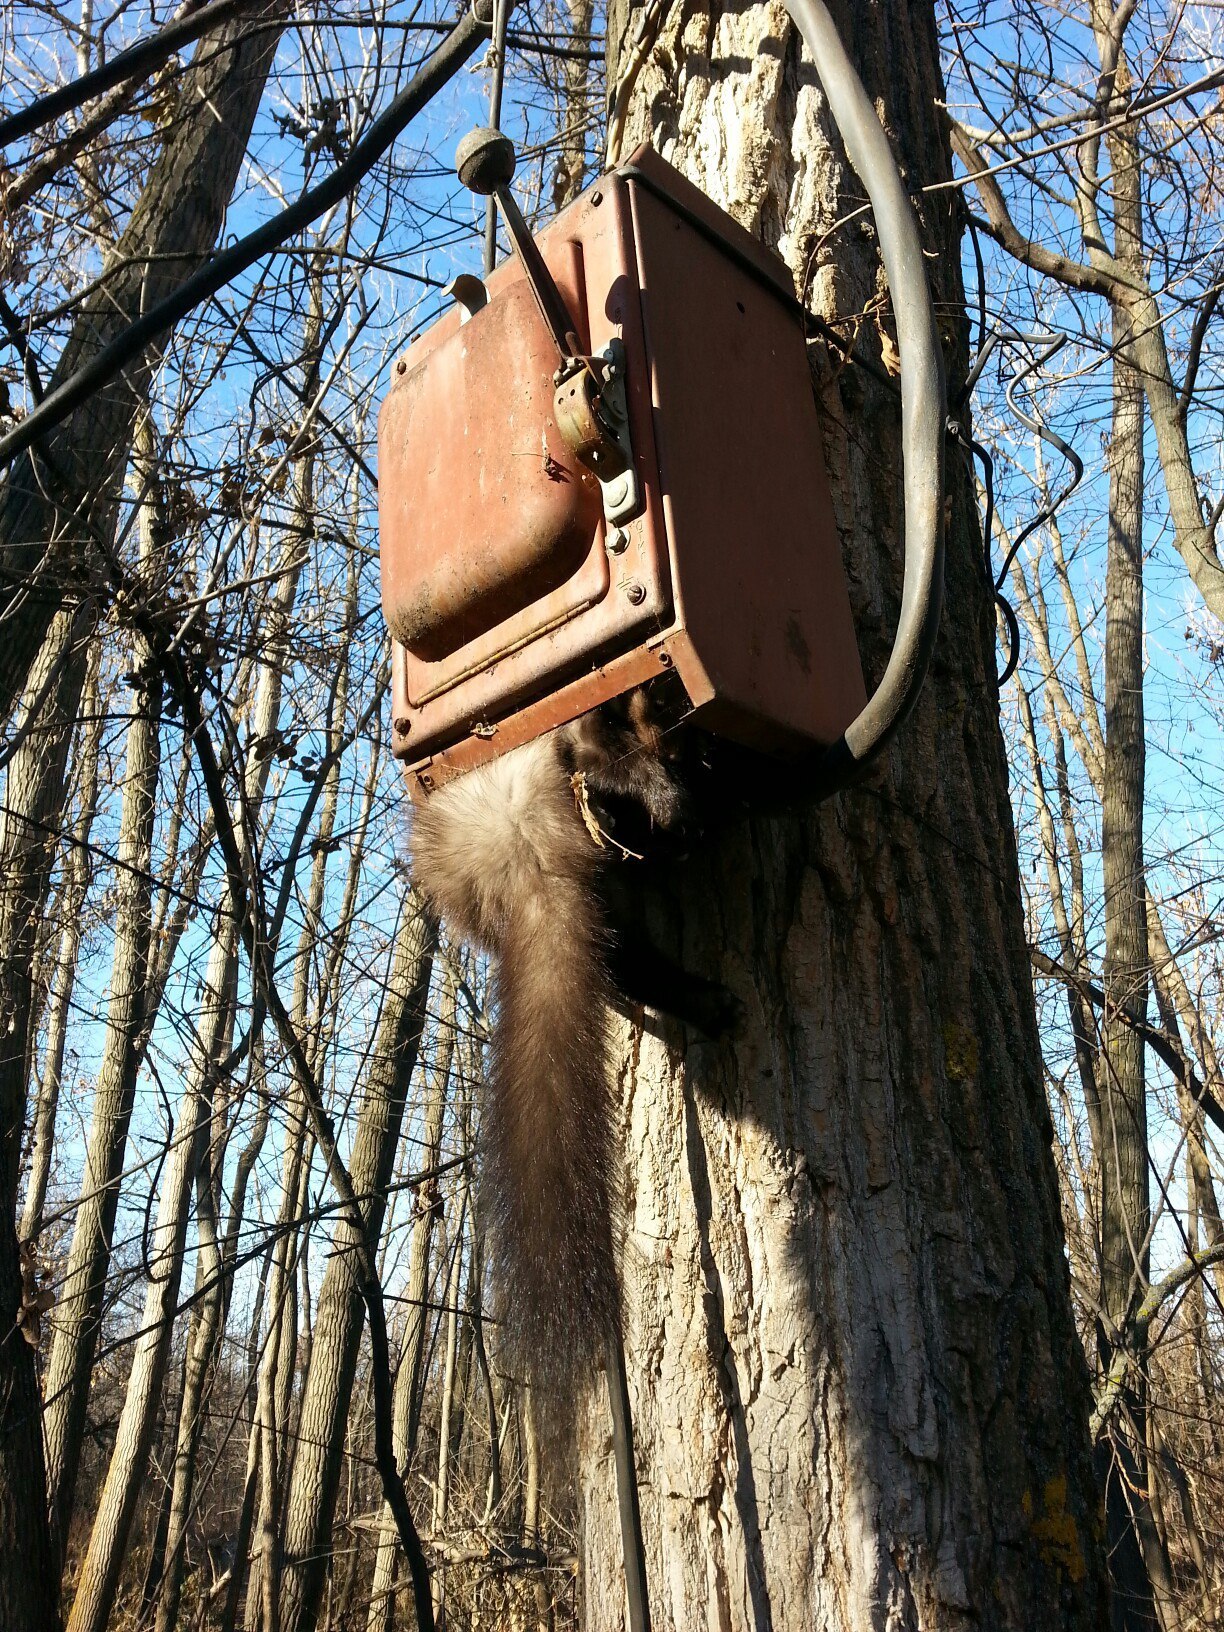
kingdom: Animalia
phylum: Chordata
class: Mammalia
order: Carnivora
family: Mustelidae
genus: Martes
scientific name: Martes foina
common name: Beech marten
